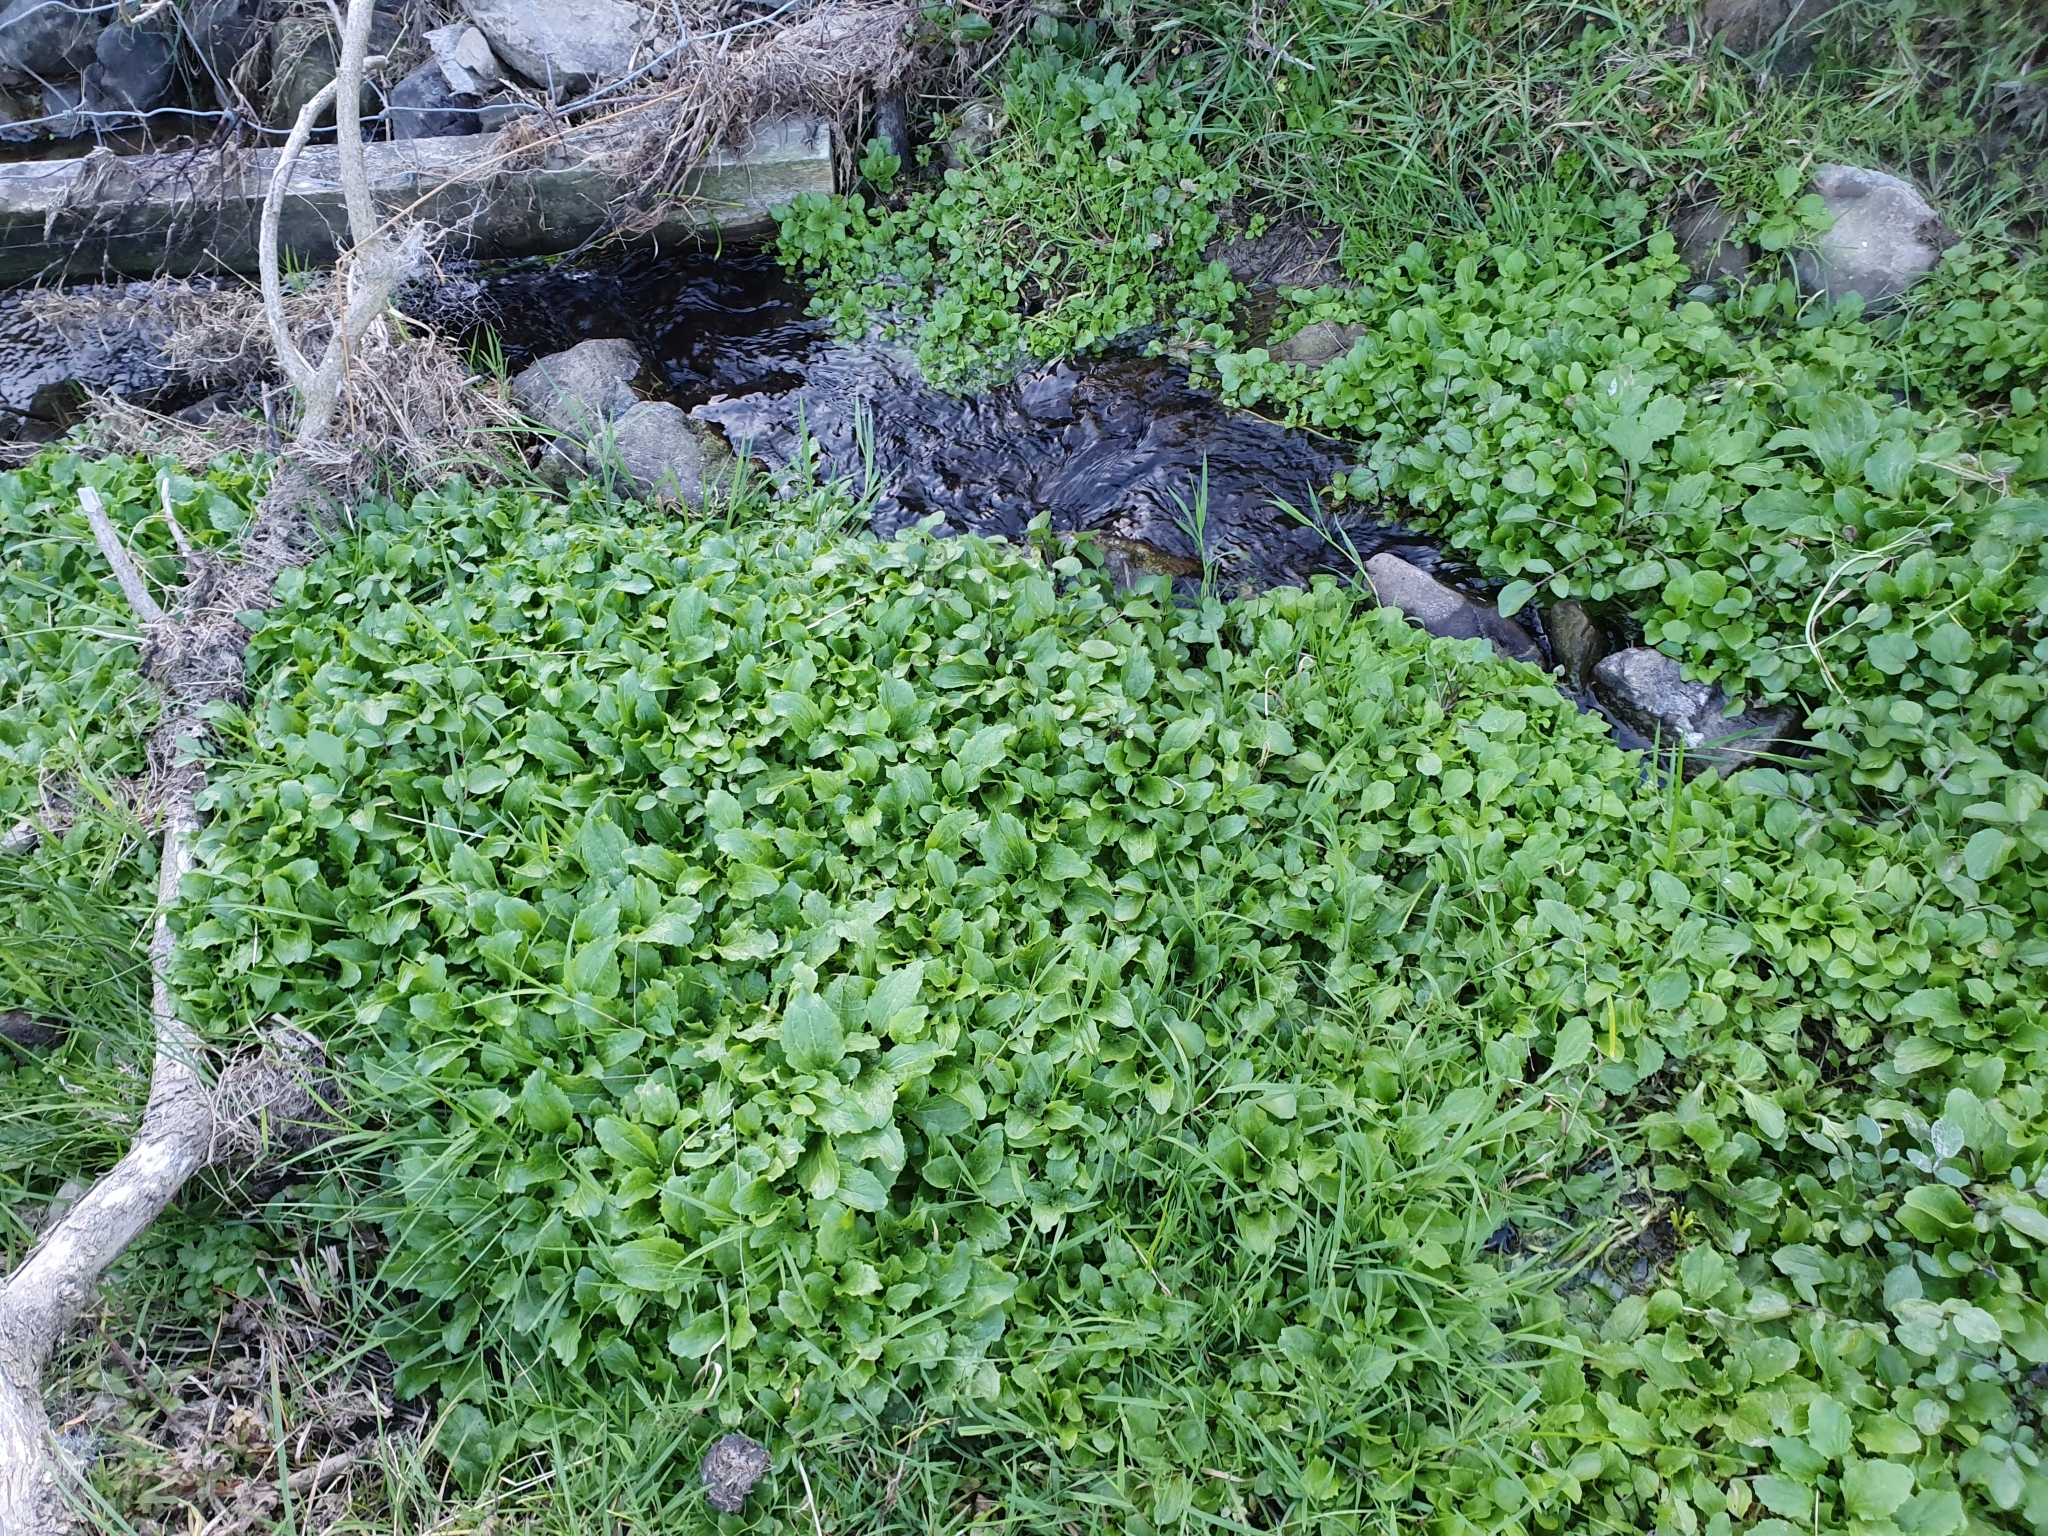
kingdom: Plantae
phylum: Tracheophyta
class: Magnoliopsida
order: Lamiales
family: Phrymaceae
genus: Erythranthe
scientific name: Erythranthe guttata
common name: Monkeyflower
